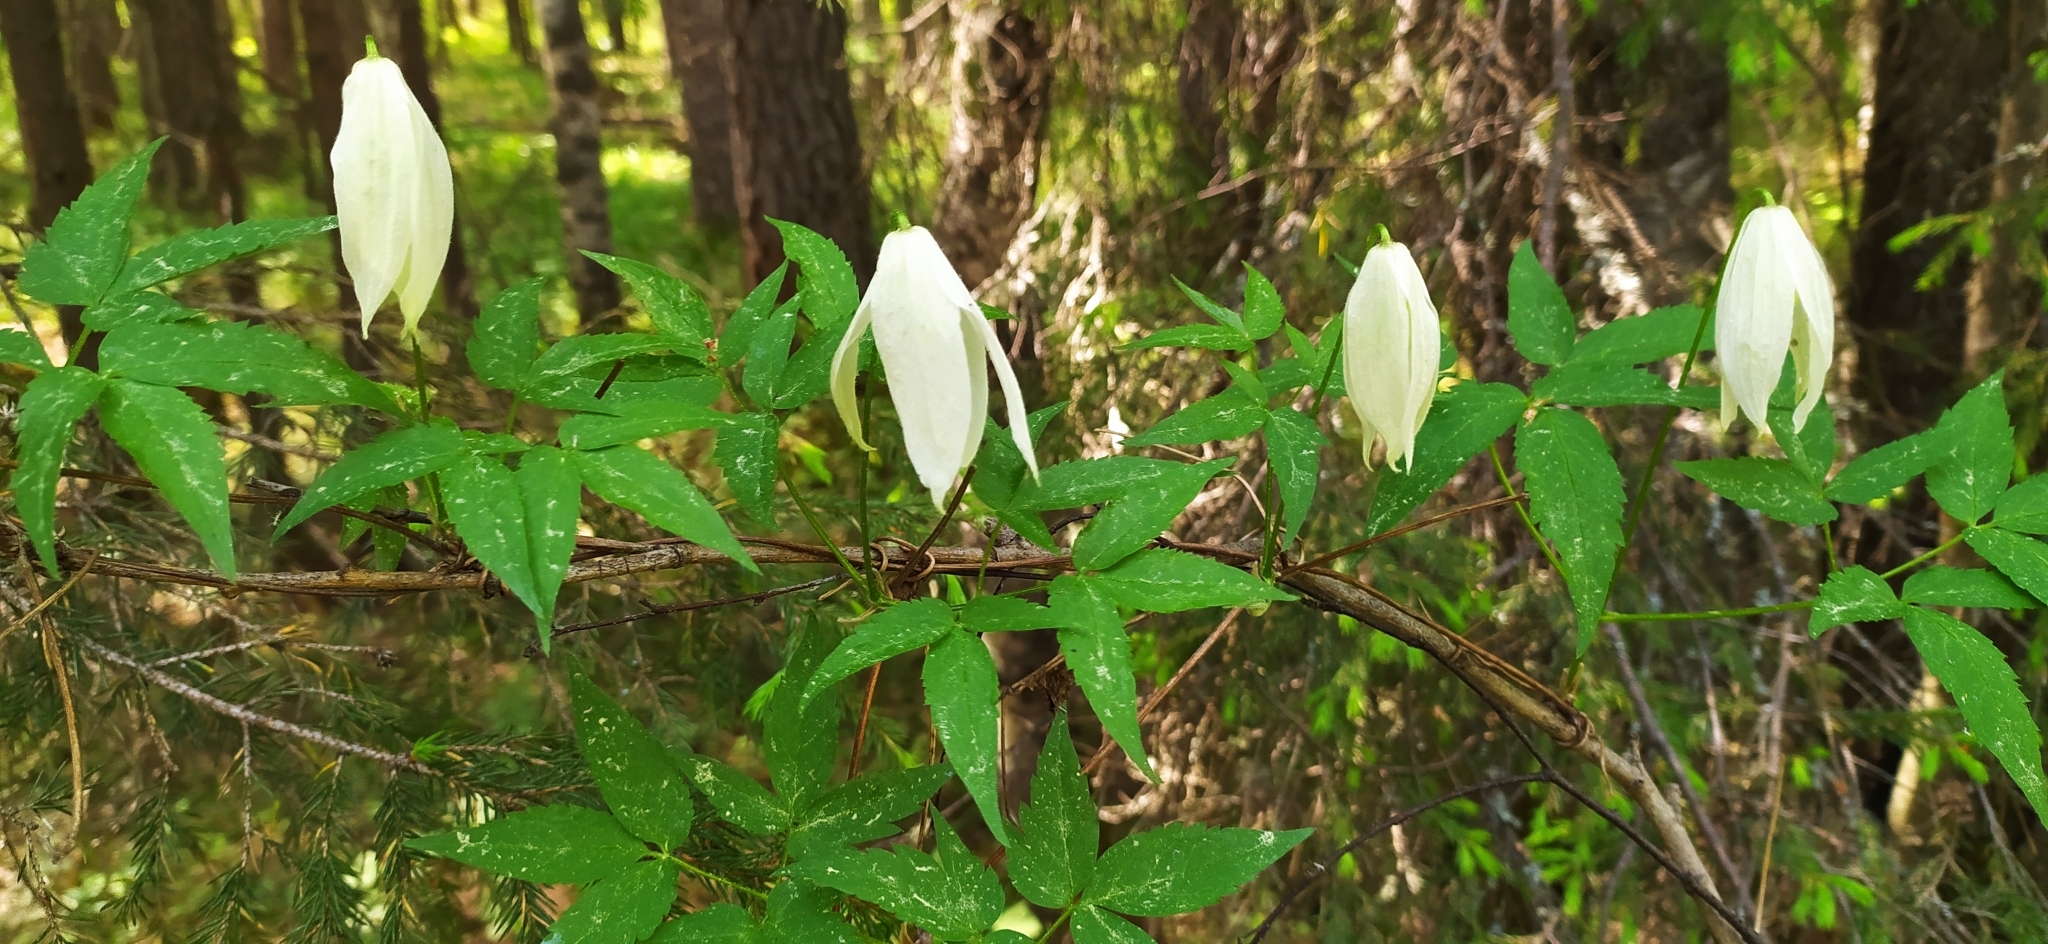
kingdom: Plantae
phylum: Tracheophyta
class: Magnoliopsida
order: Ranunculales
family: Ranunculaceae
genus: Clematis
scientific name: Clematis sibirica
